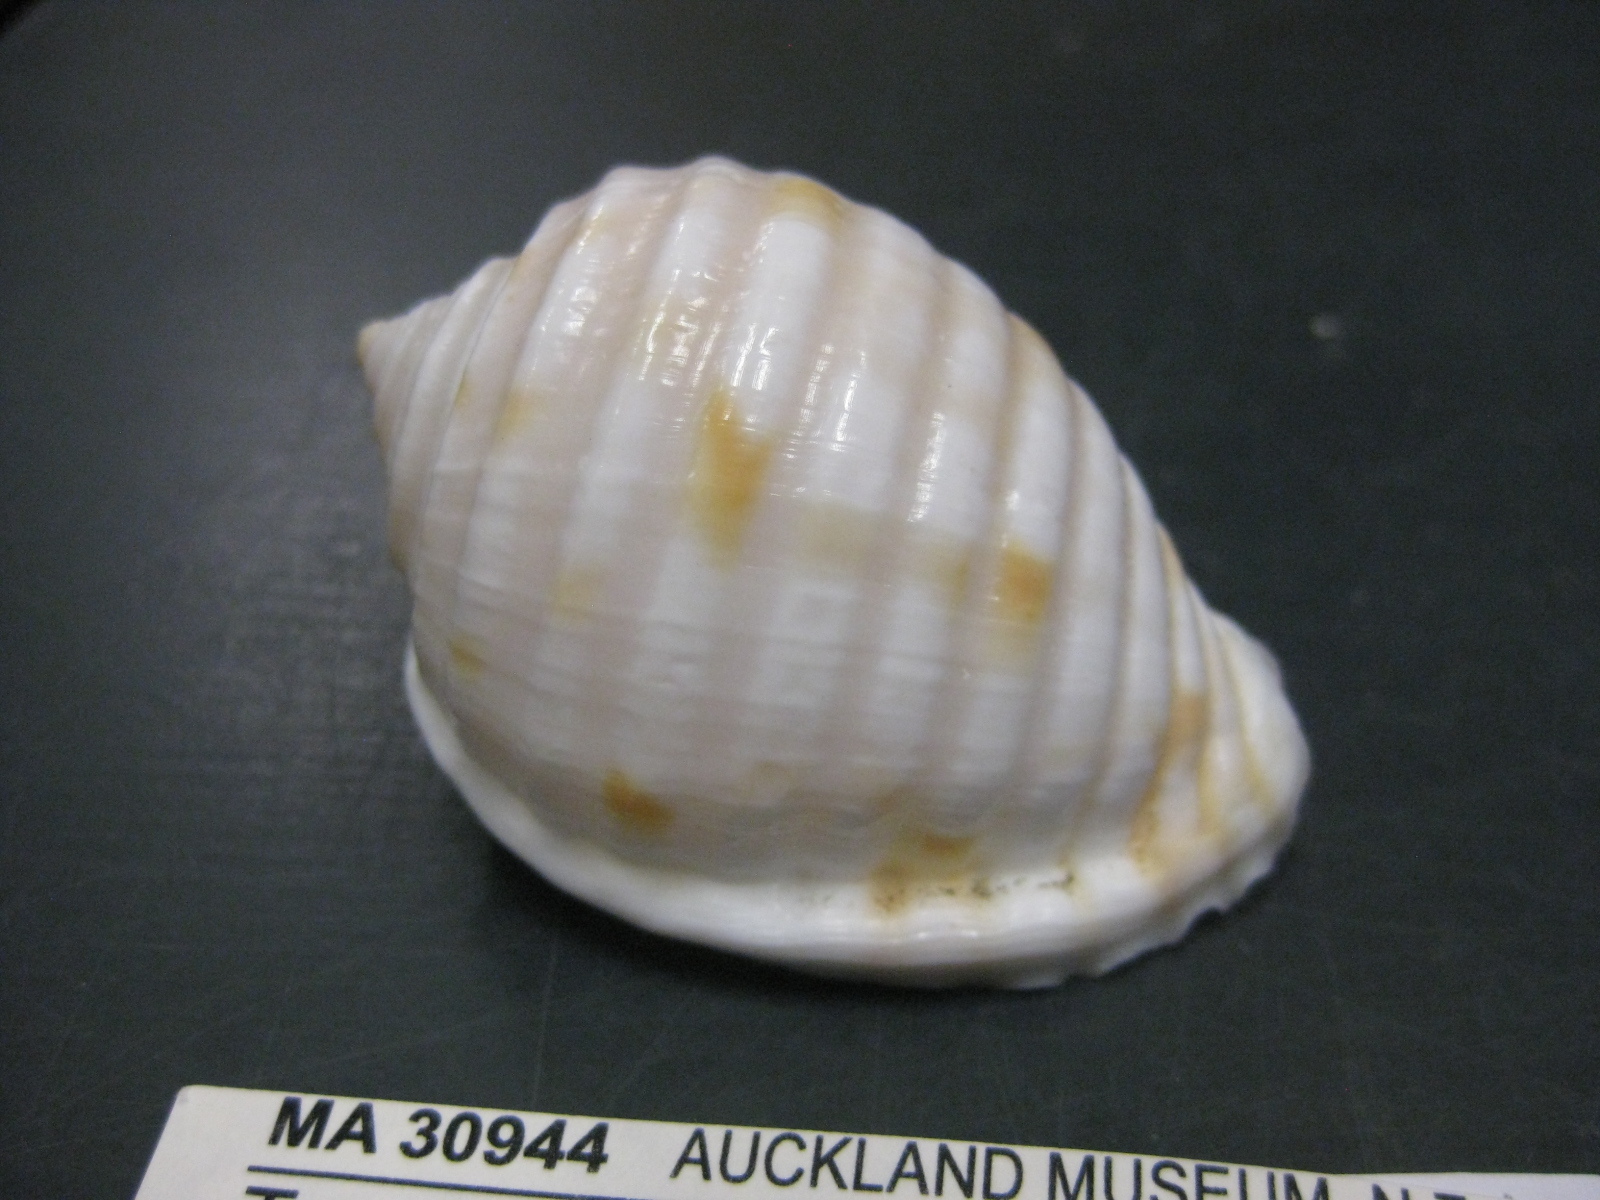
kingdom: Animalia
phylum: Mollusca
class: Gastropoda
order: Littorinimorpha
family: Tonnidae
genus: Malea
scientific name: Malea pomum
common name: Pacific grinning tun
